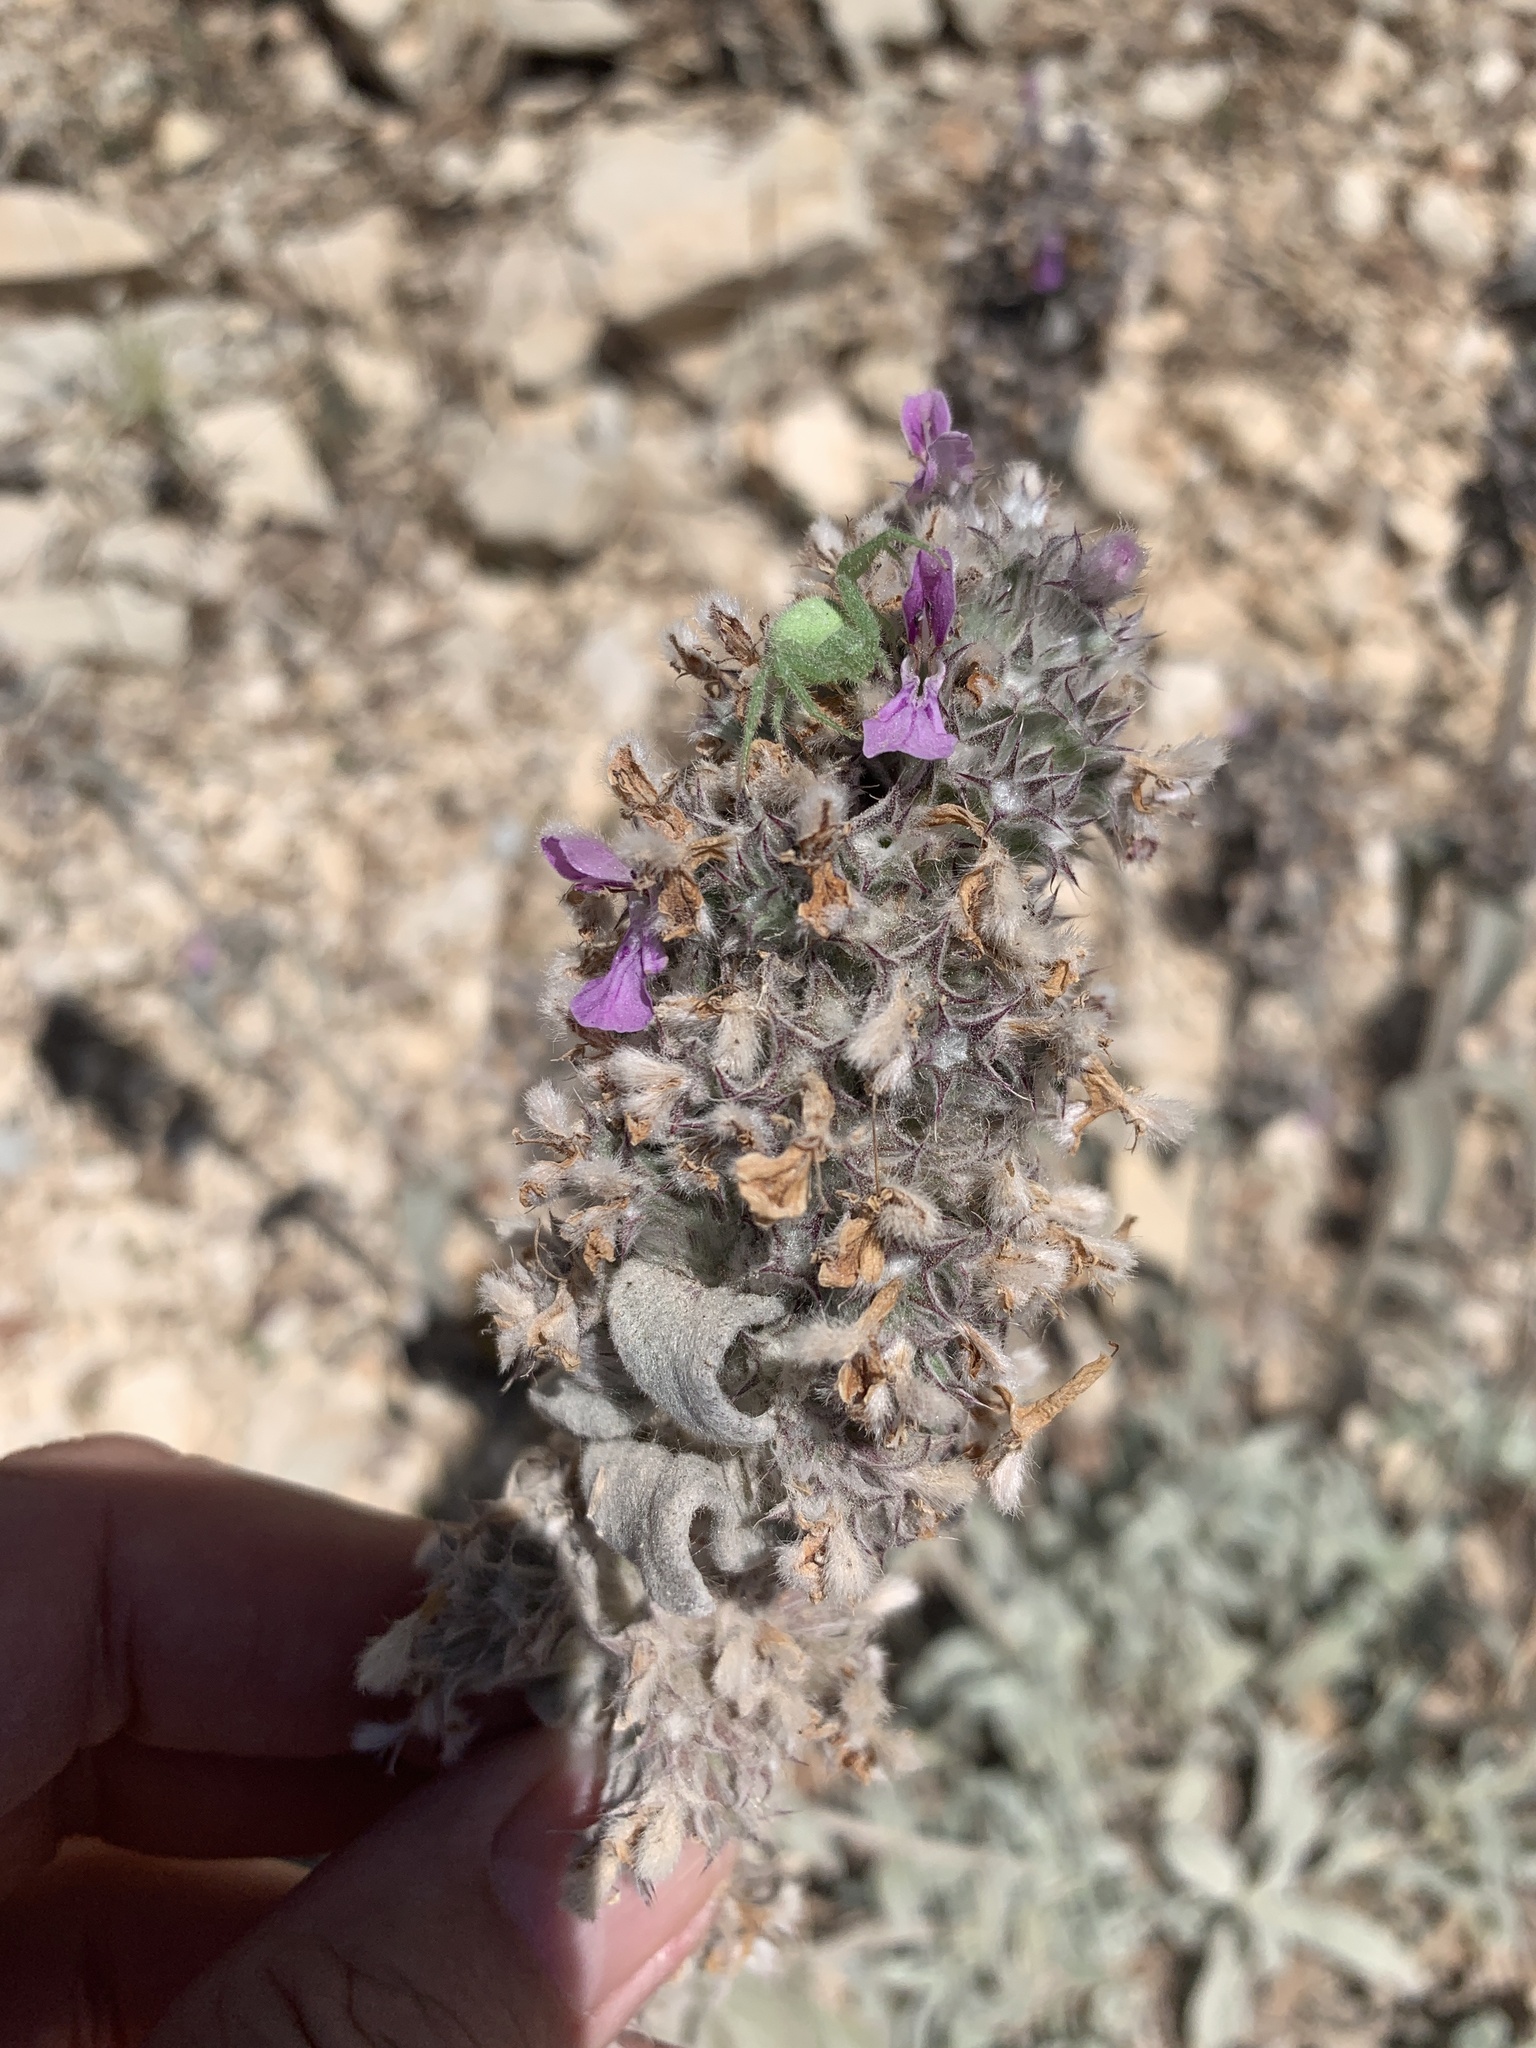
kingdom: Plantae
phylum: Tracheophyta
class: Magnoliopsida
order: Lamiales
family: Lamiaceae
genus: Stachys
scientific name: Stachys cretica
